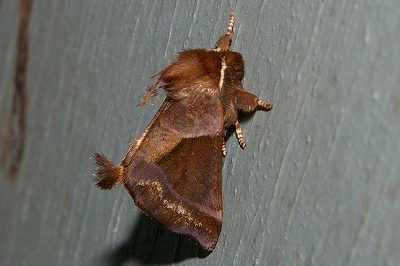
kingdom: Animalia
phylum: Arthropoda
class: Insecta
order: Lepidoptera
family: Notodontidae
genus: Gonoclostera
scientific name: Gonoclostera timoniorum
